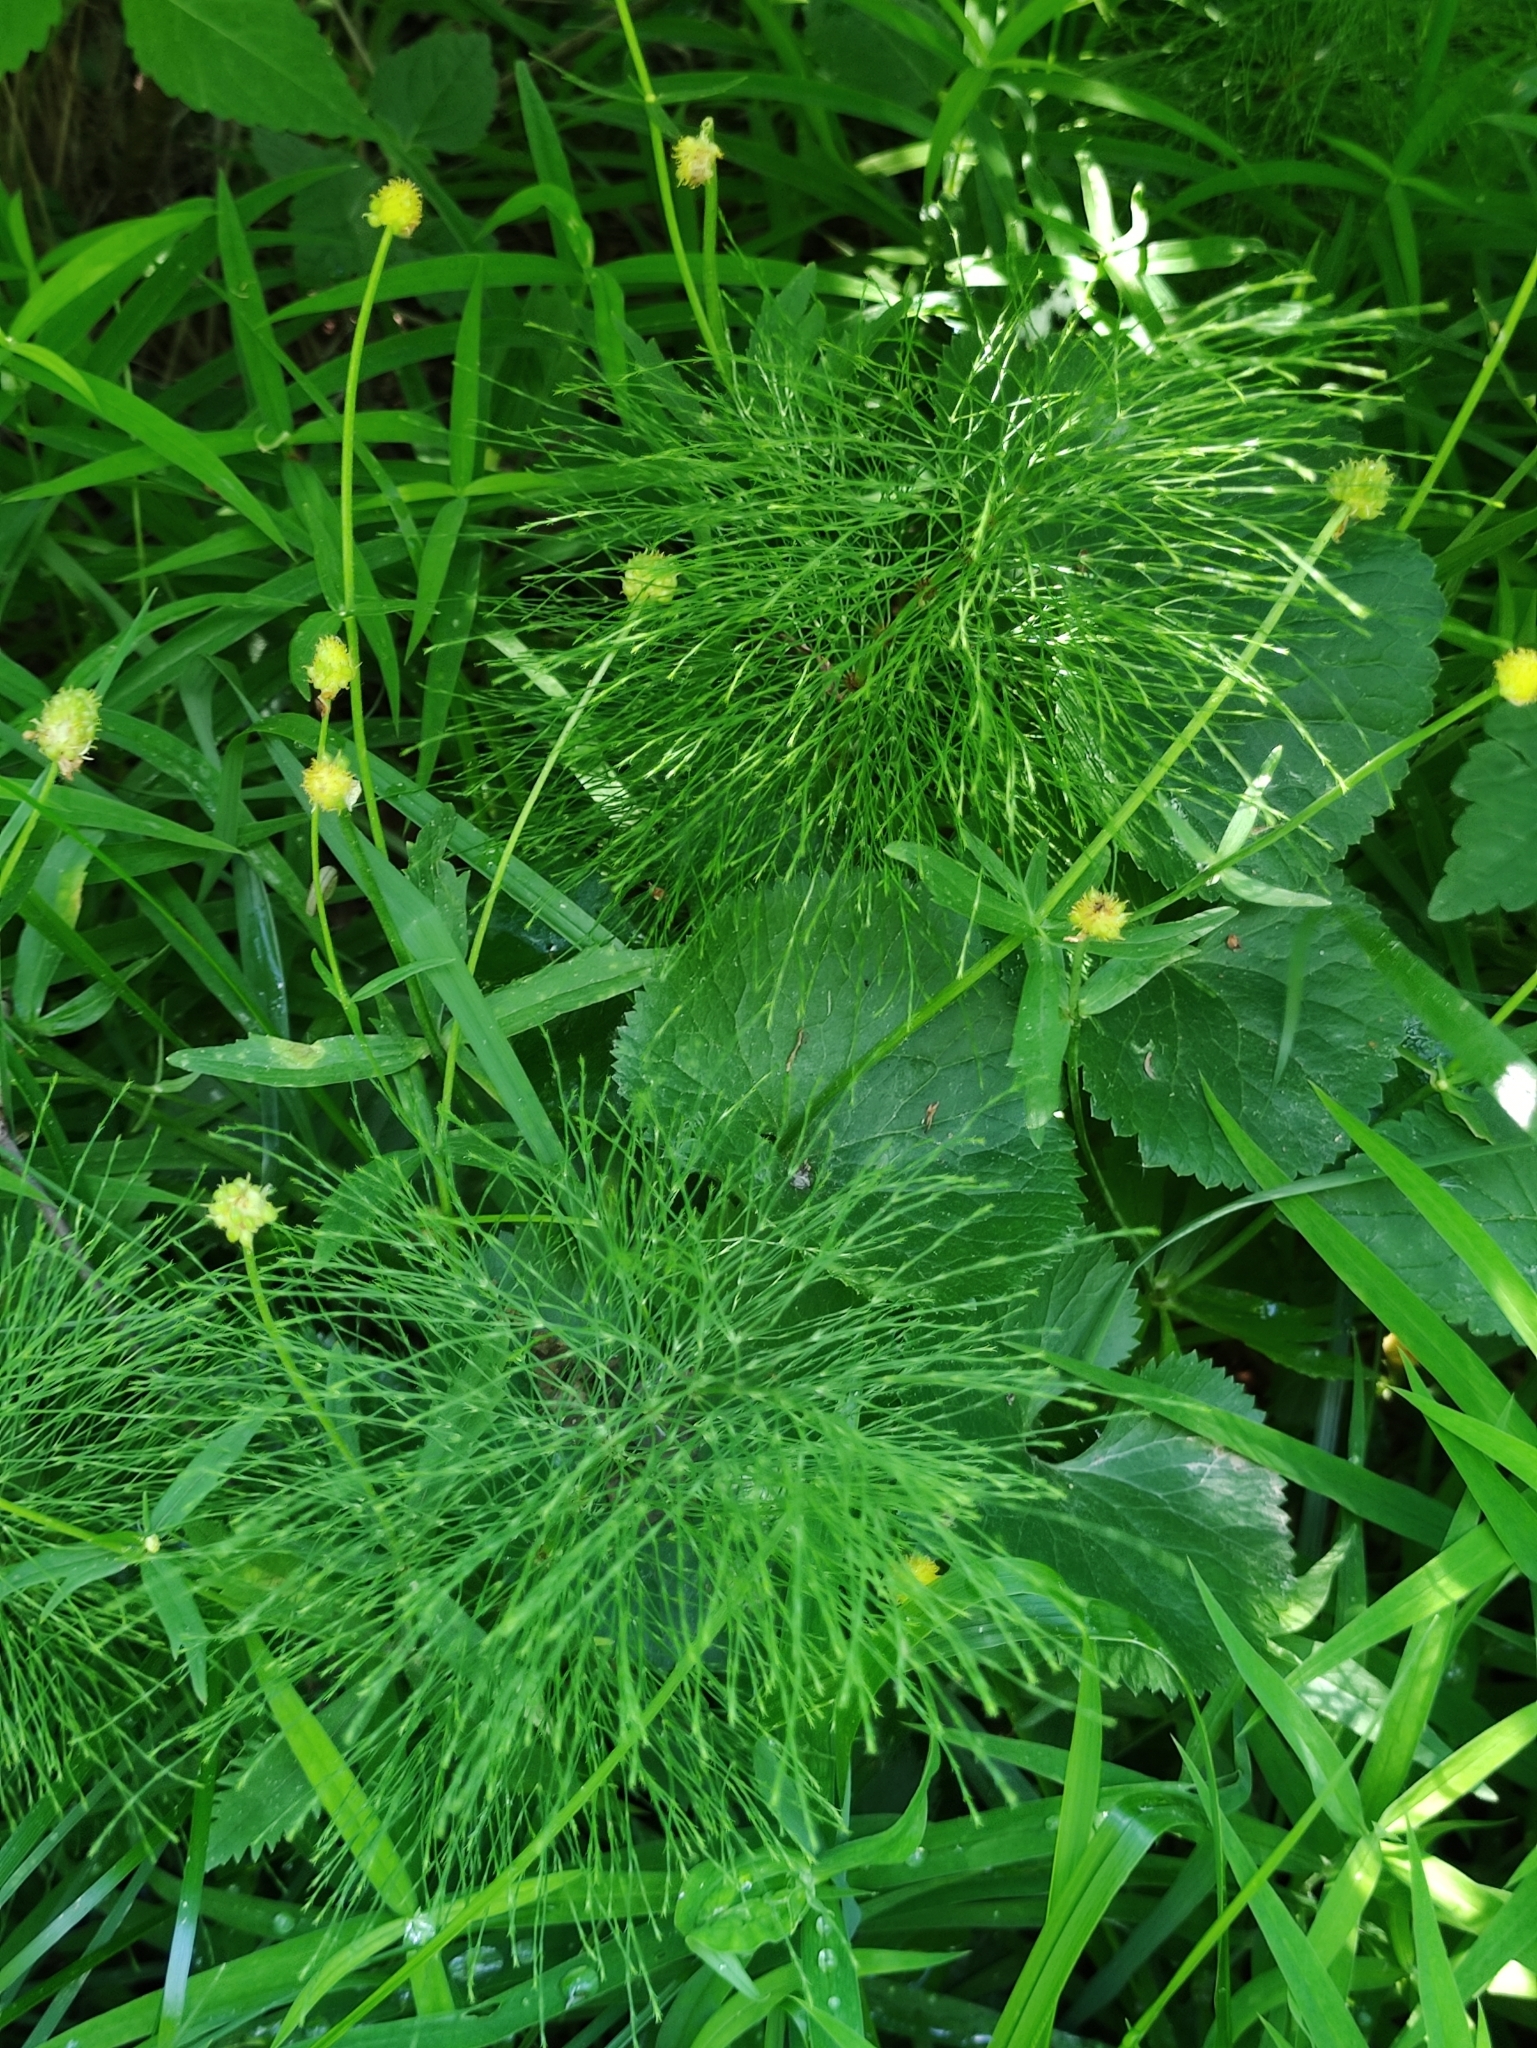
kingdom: Plantae
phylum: Tracheophyta
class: Polypodiopsida
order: Equisetales
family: Equisetaceae
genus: Equisetum
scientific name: Equisetum sylvaticum
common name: Wood horsetail
